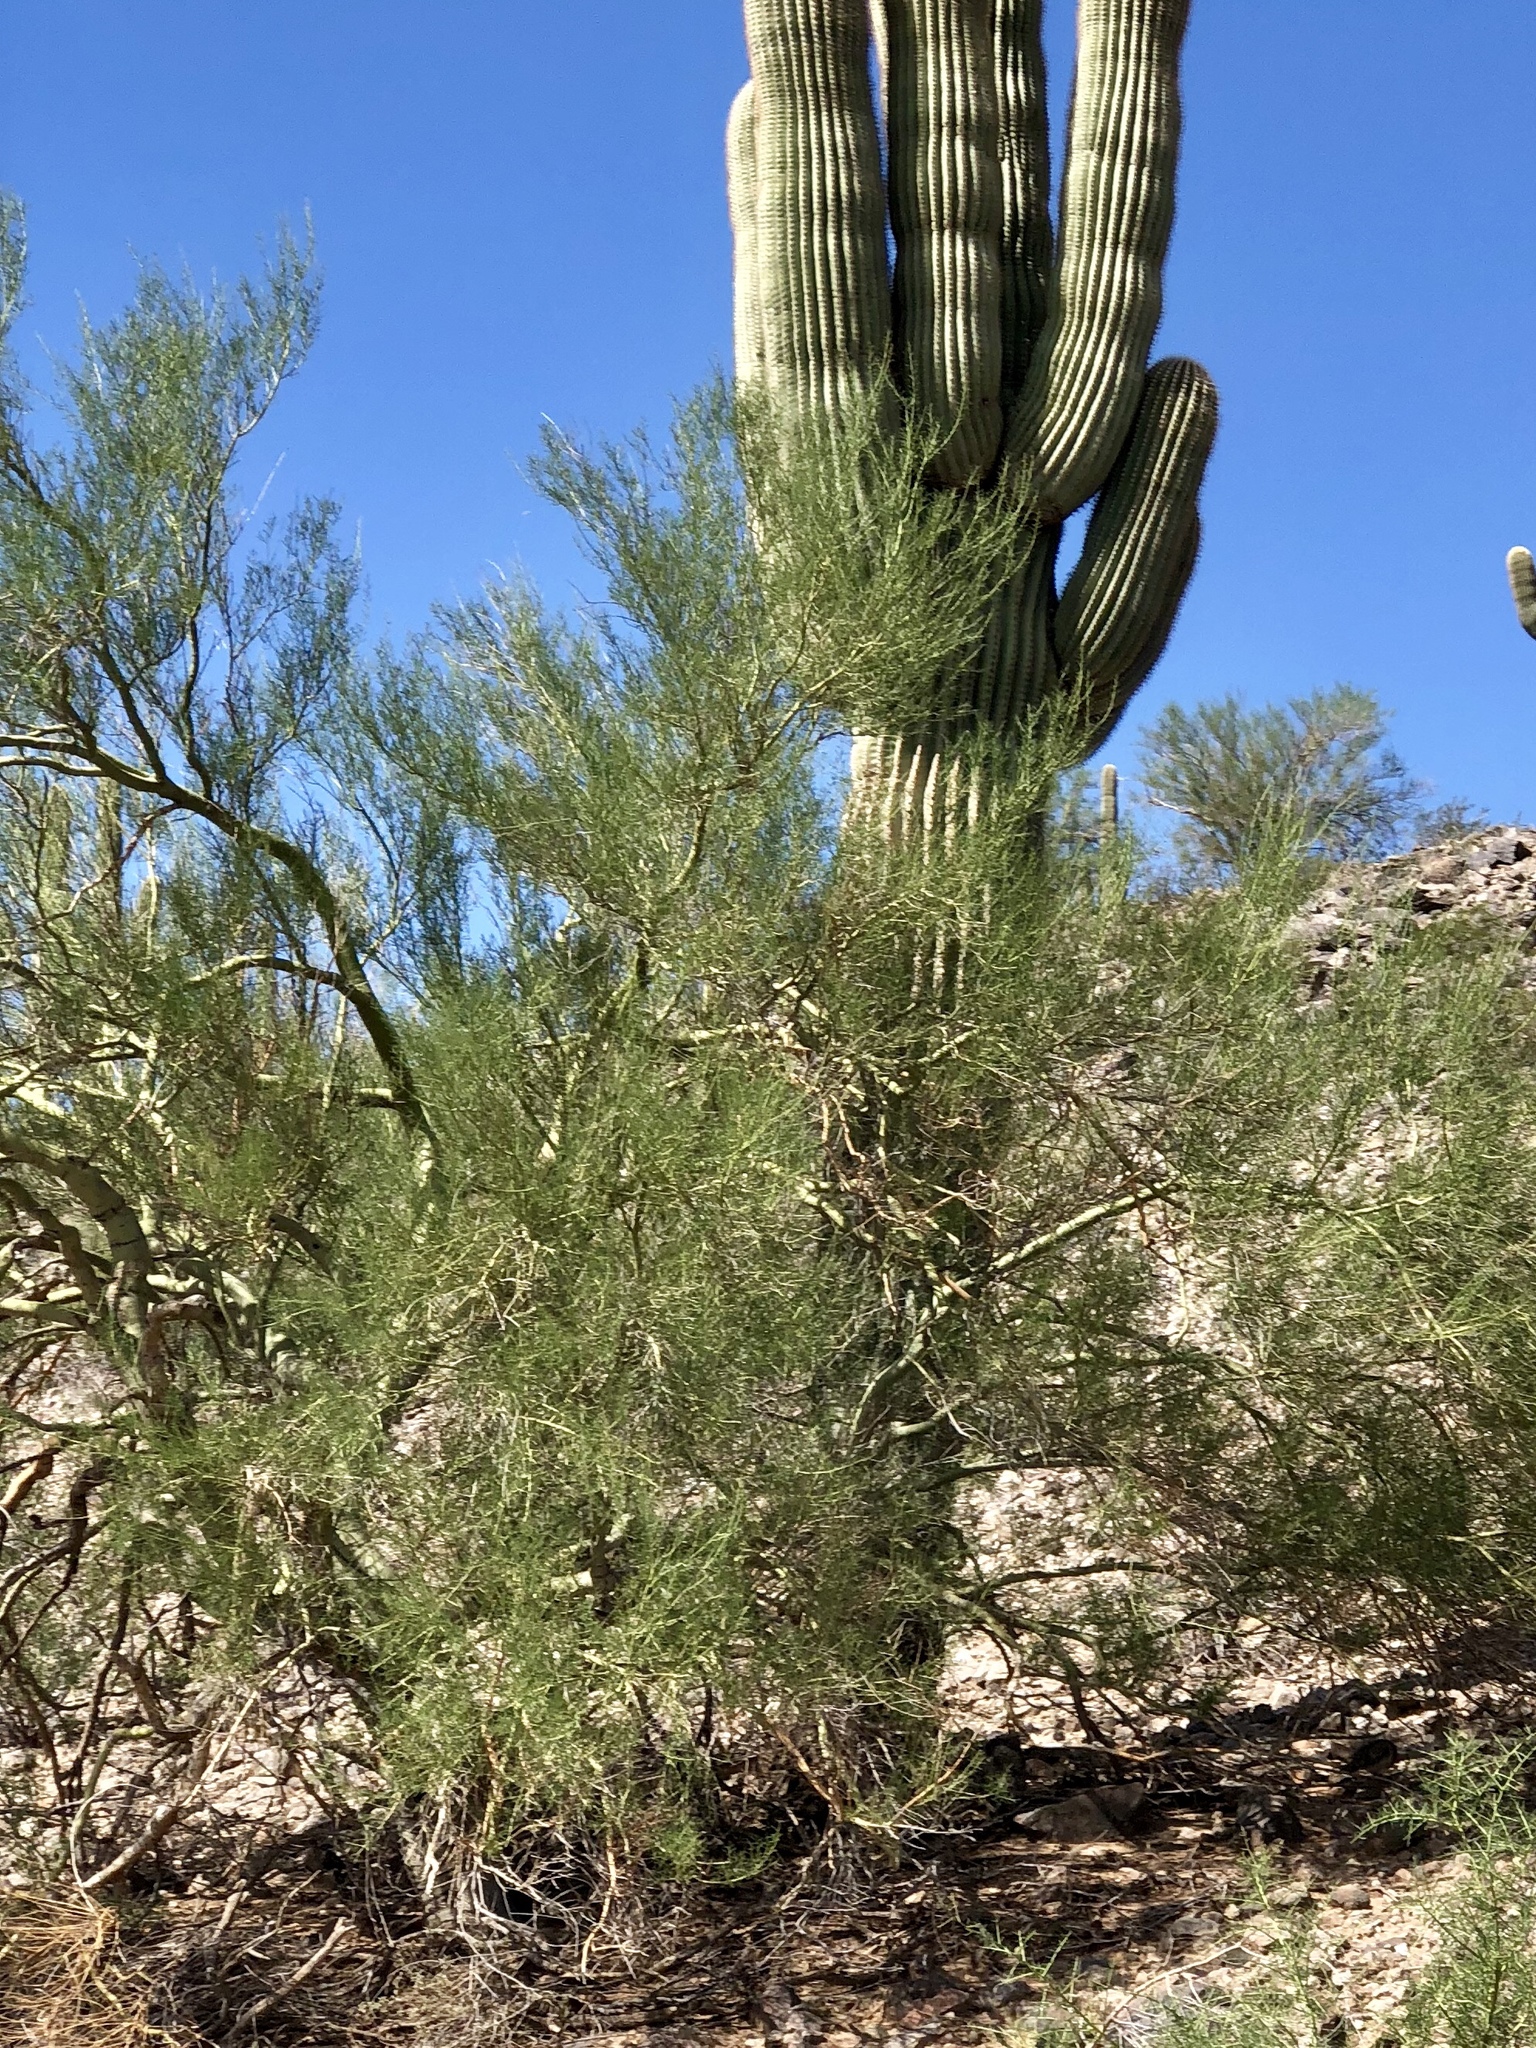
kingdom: Plantae
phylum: Tracheophyta
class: Magnoliopsida
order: Fabales
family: Fabaceae
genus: Parkinsonia
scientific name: Parkinsonia microphylla
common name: Yellow paloverde
